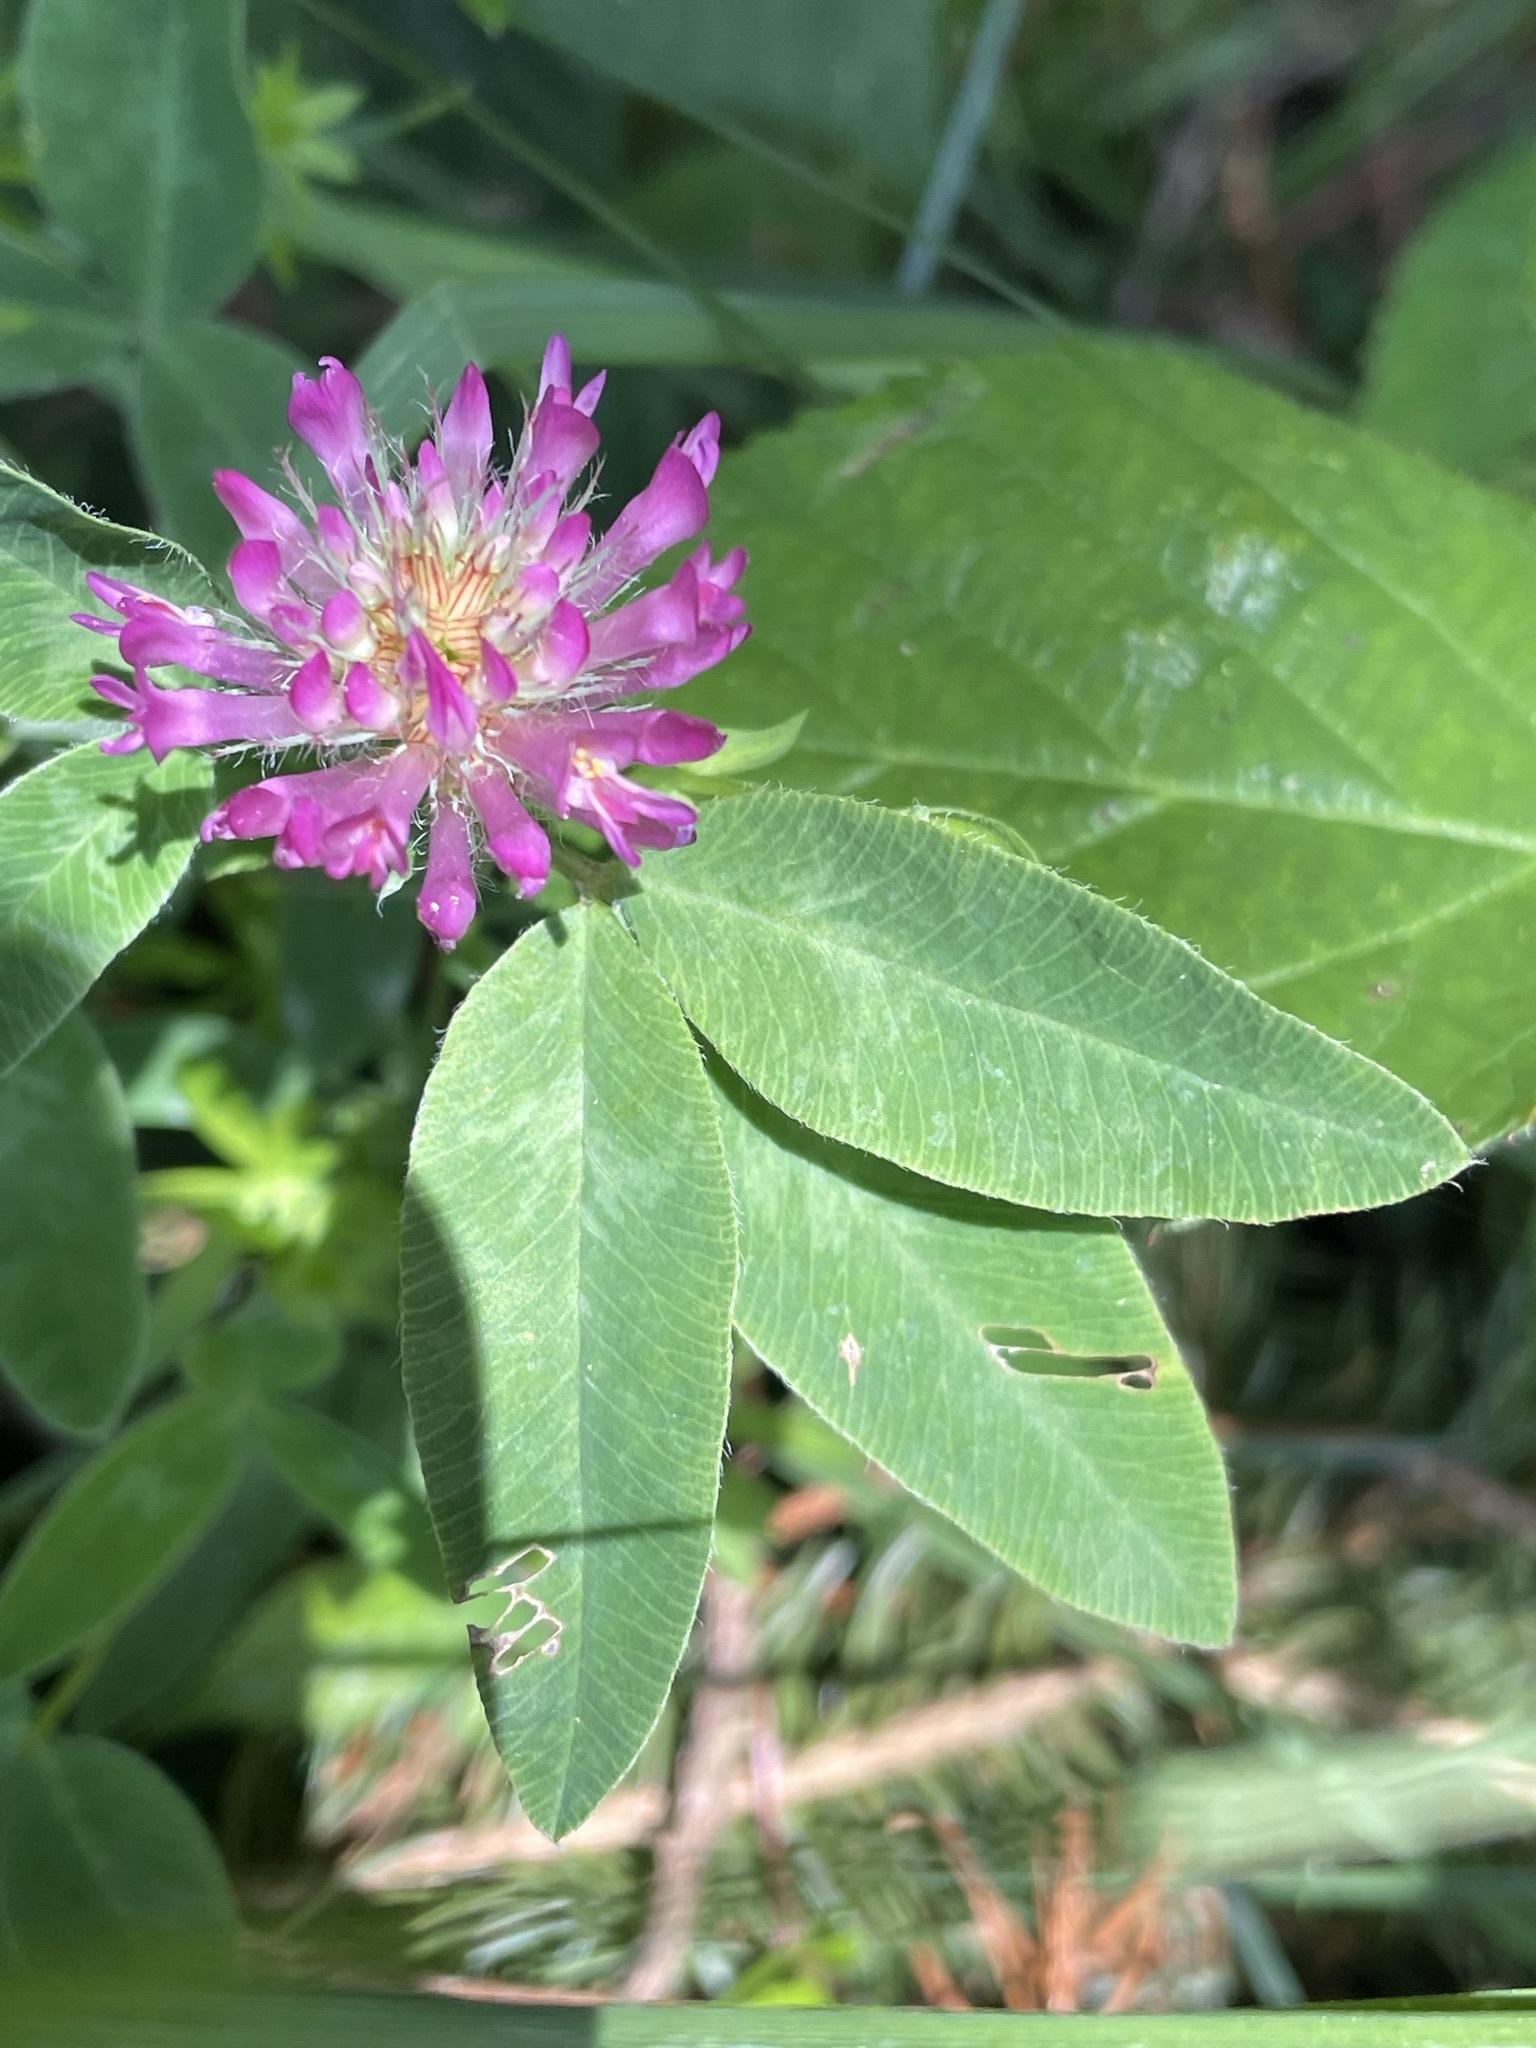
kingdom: Plantae
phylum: Tracheophyta
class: Magnoliopsida
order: Fabales
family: Fabaceae
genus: Trifolium
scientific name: Trifolium medium
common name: Zigzag clover
